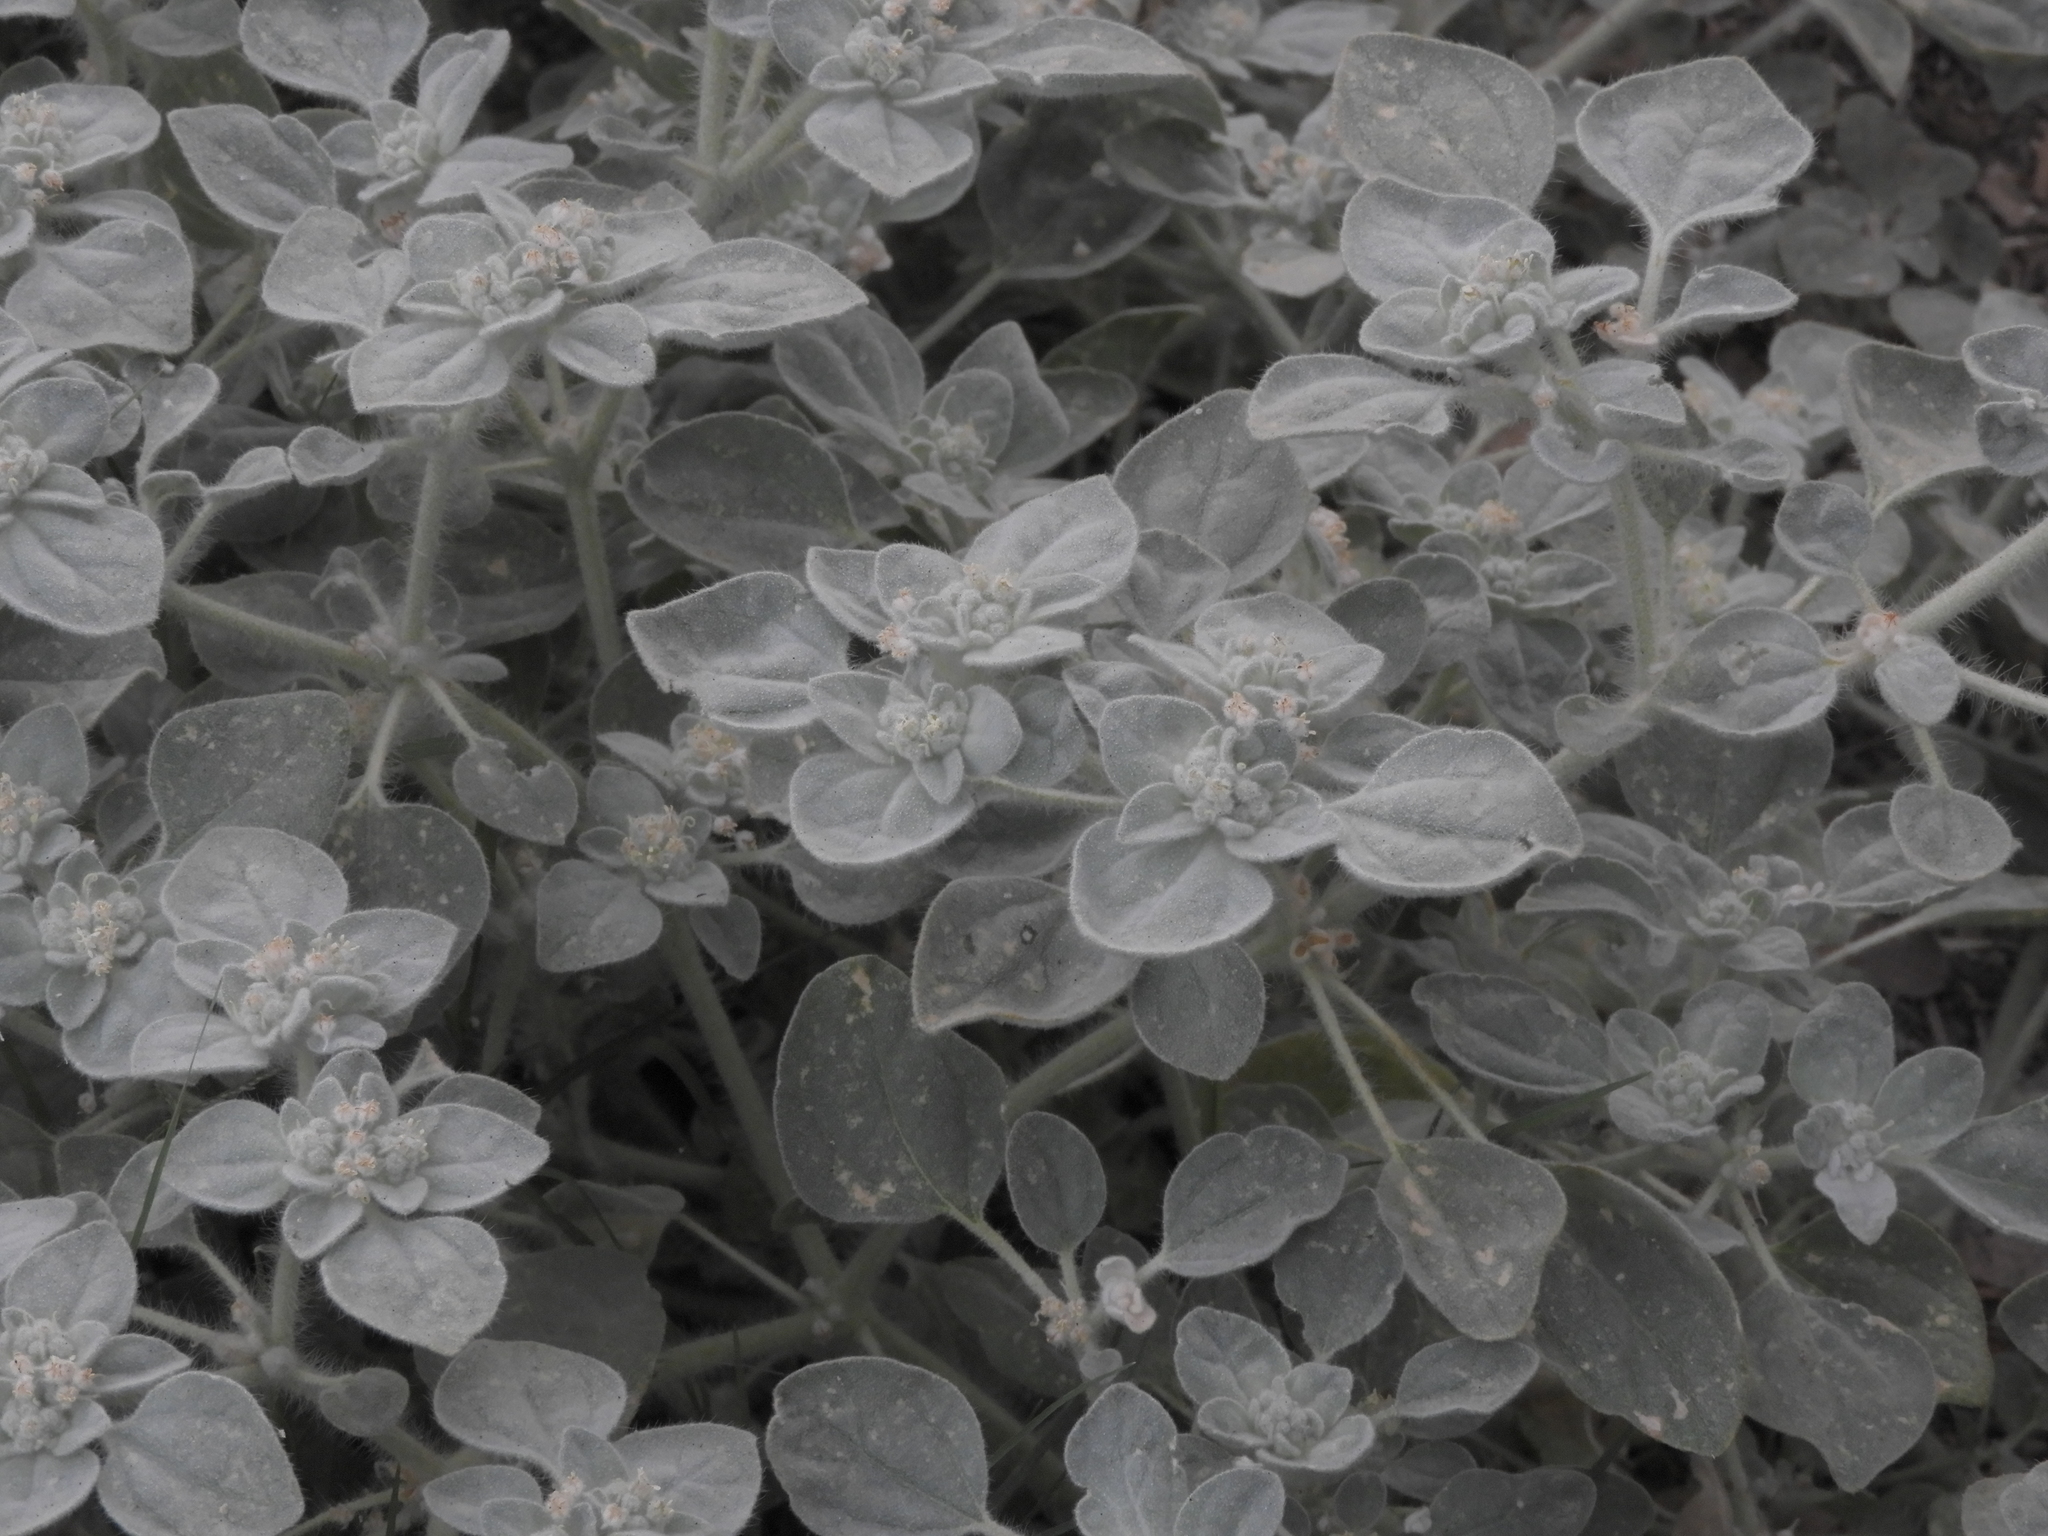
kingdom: Plantae
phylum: Tracheophyta
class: Magnoliopsida
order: Malpighiales
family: Euphorbiaceae
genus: Croton
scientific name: Croton setiger
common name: Dove weed
